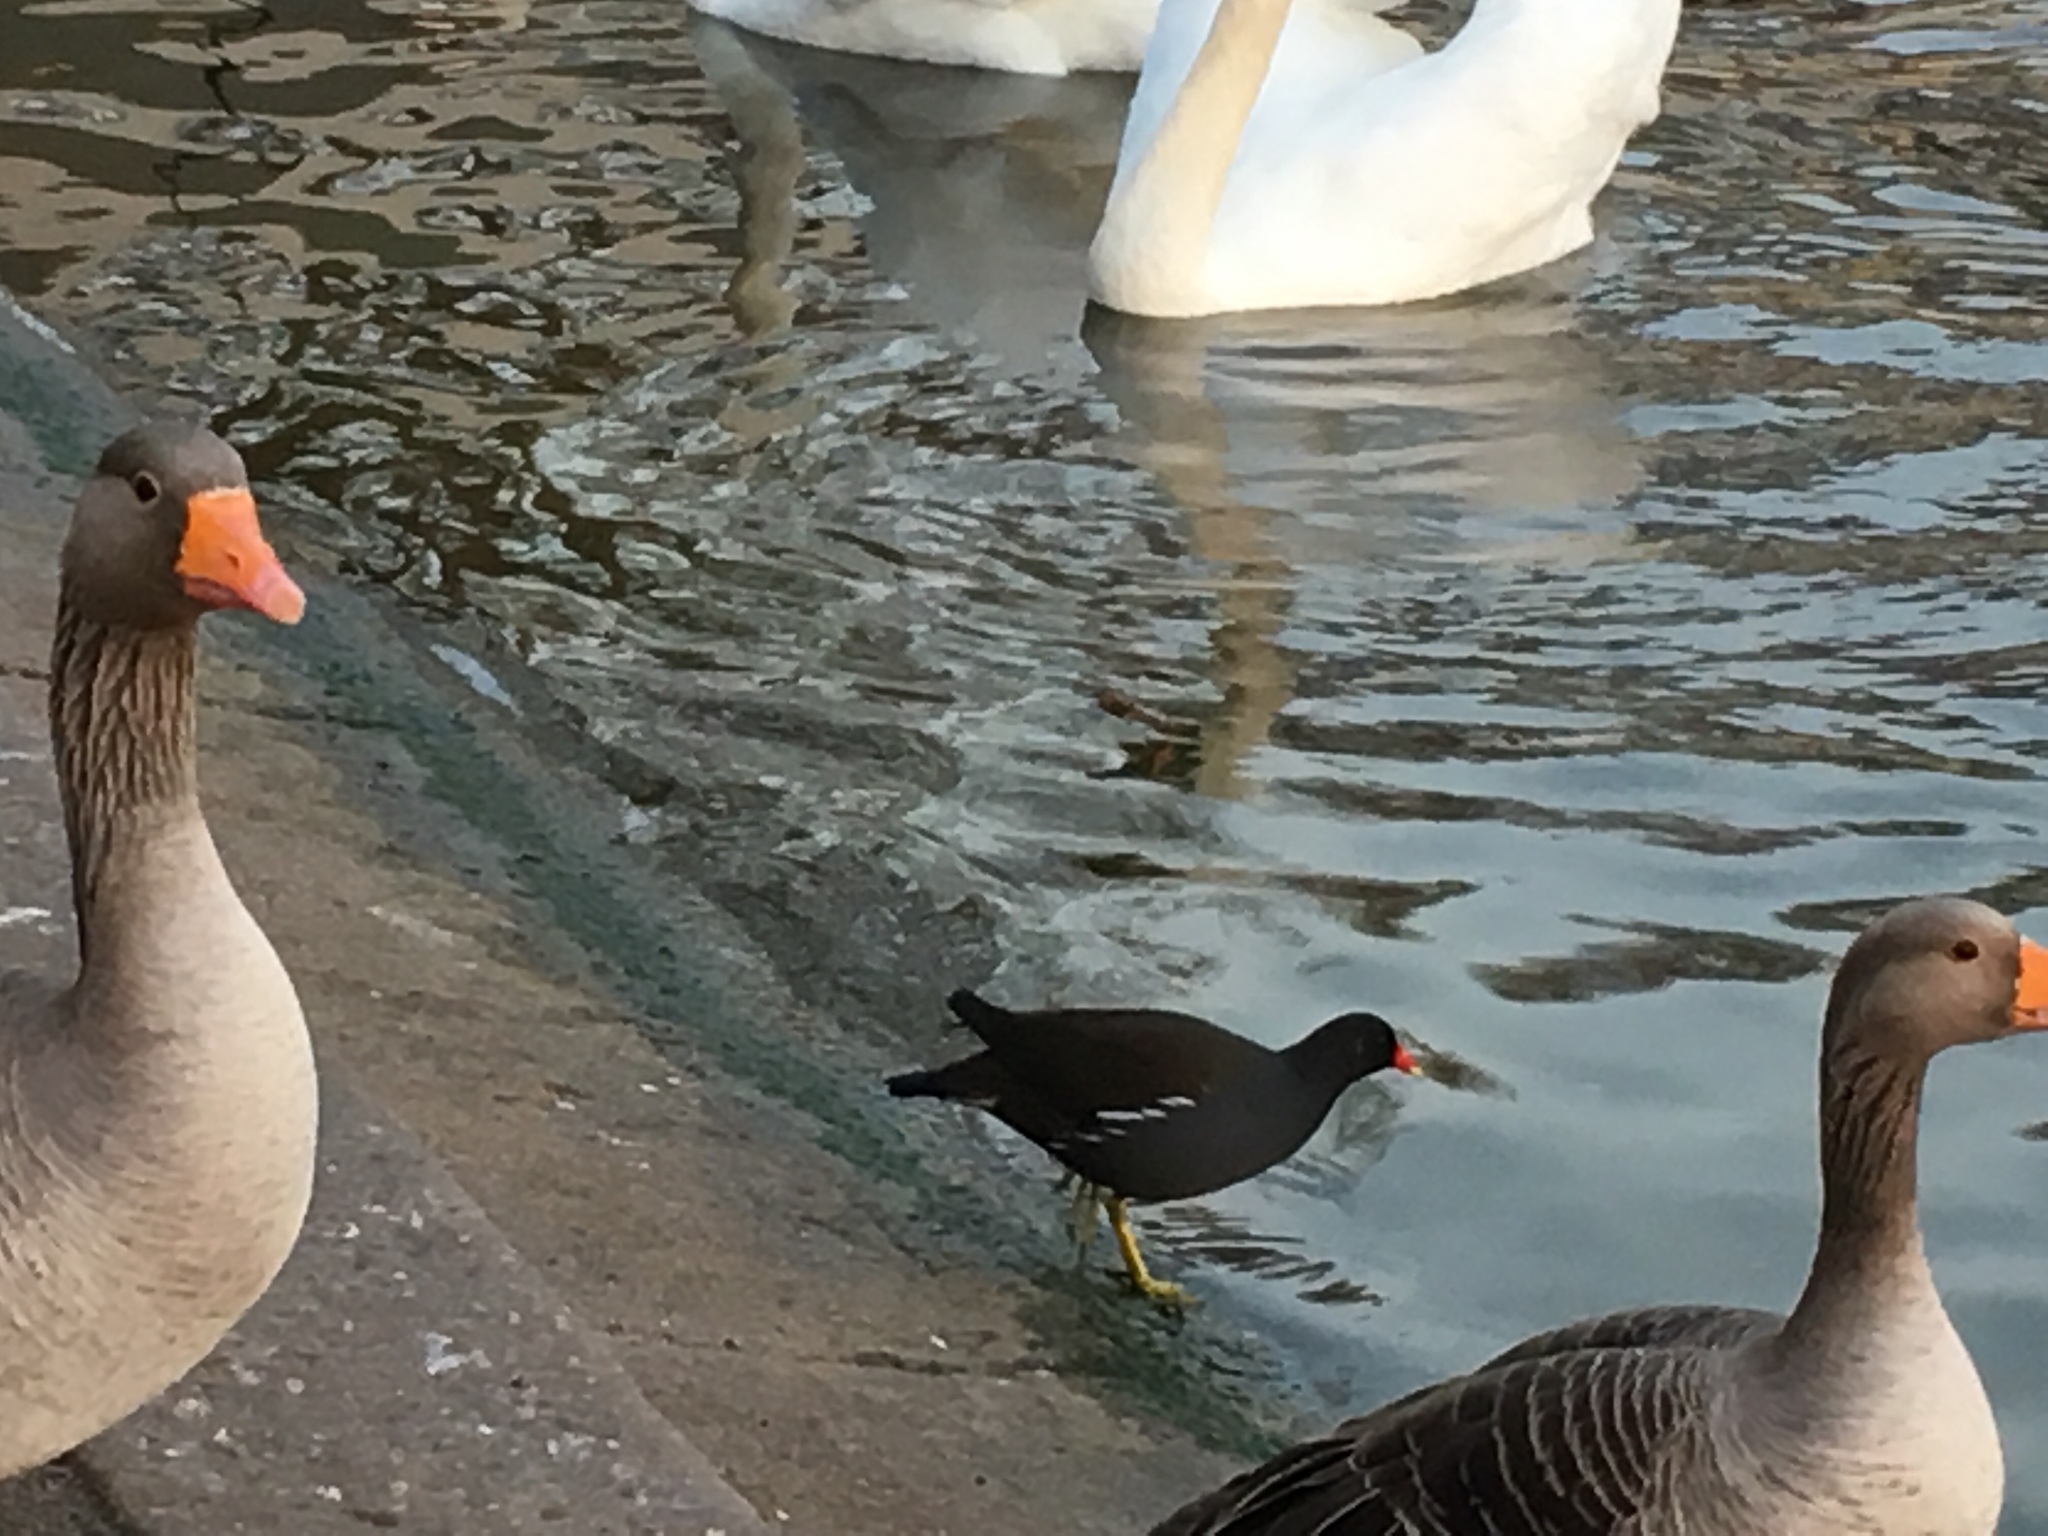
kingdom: Animalia
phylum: Chordata
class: Aves
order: Gruiformes
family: Rallidae
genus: Gallinula
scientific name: Gallinula chloropus
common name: Common moorhen
